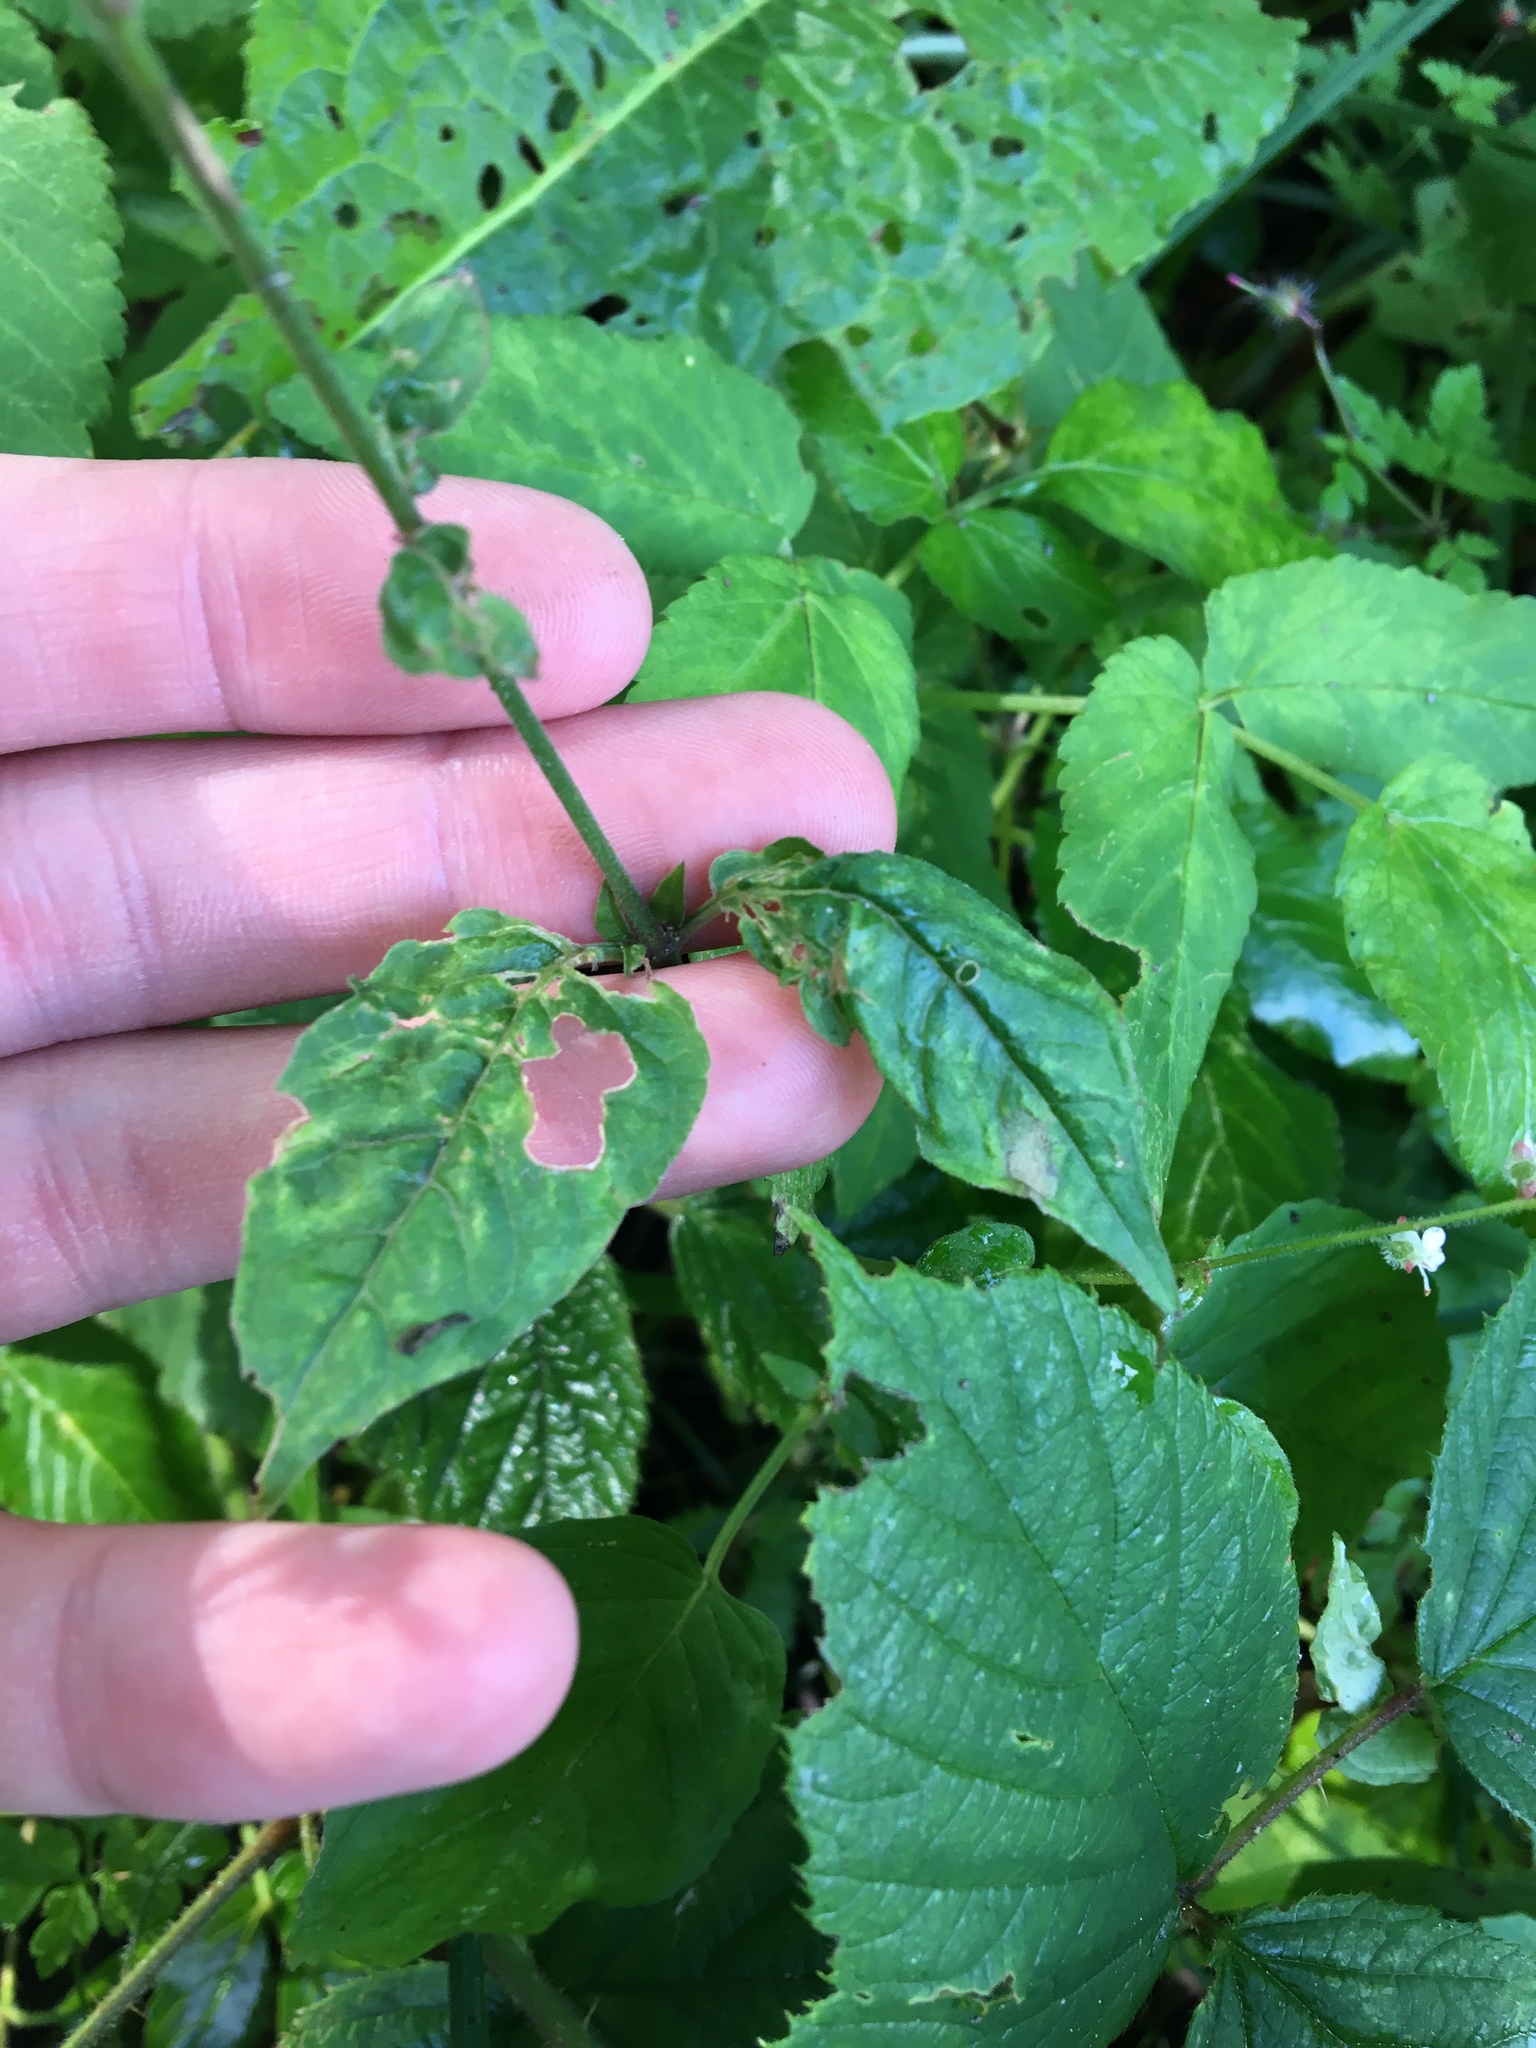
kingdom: Plantae
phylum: Tracheophyta
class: Magnoliopsida
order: Myrtales
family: Onagraceae
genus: Circaea
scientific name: Circaea lutetiana
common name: Enchanter's-nightshade
